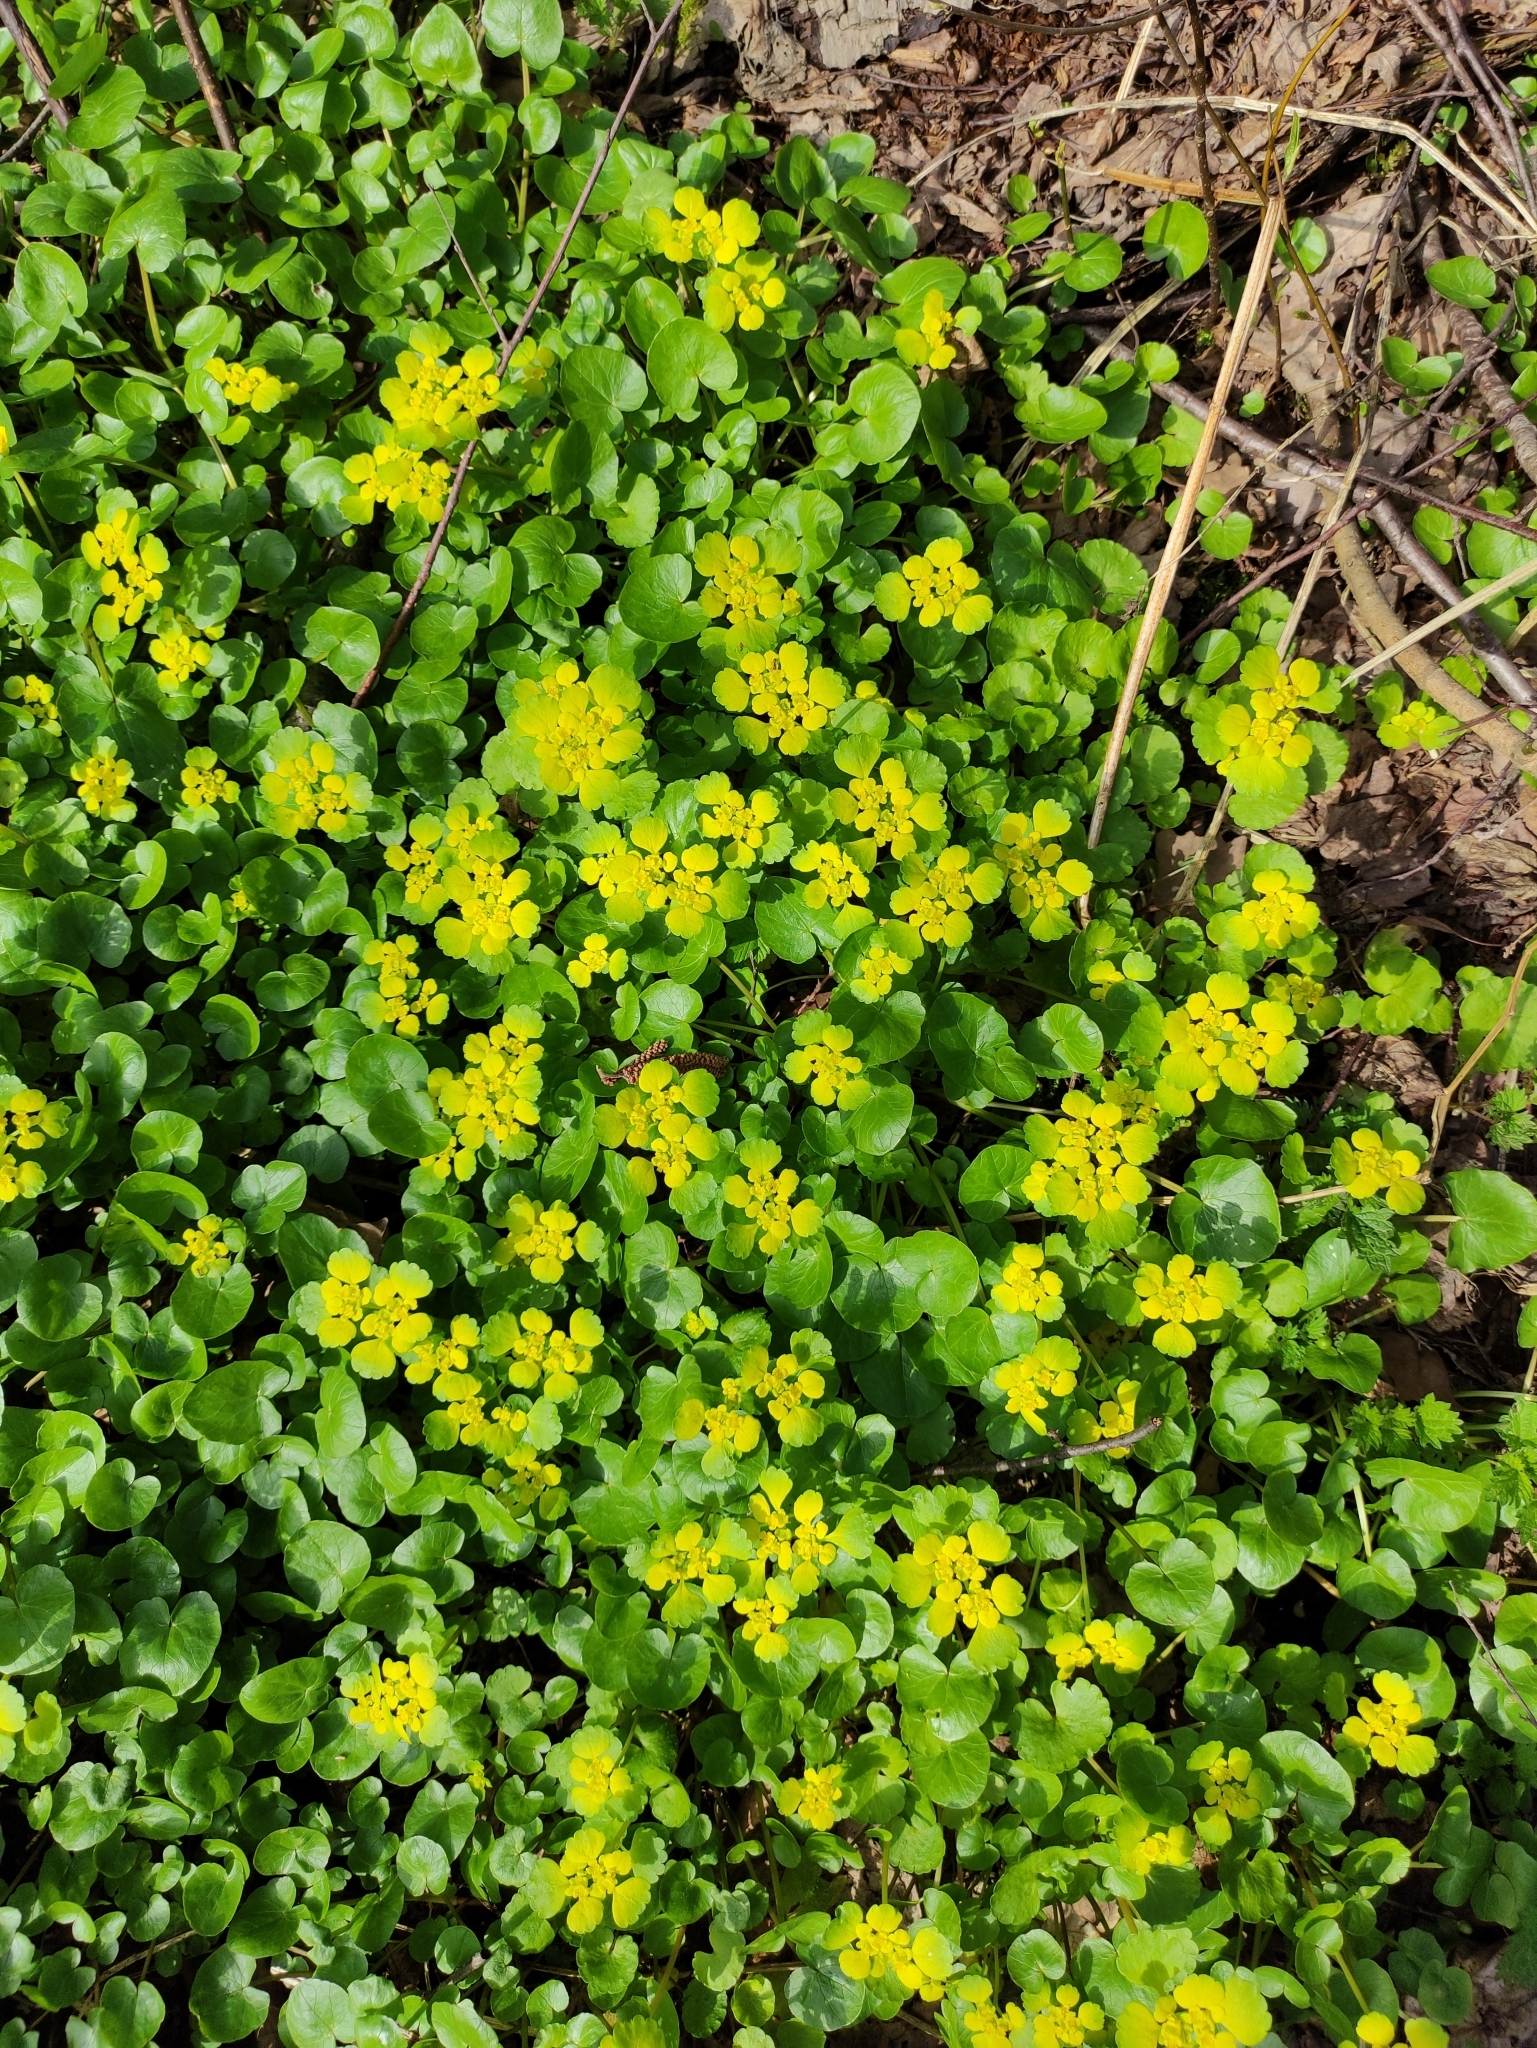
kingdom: Plantae
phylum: Tracheophyta
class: Magnoliopsida
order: Saxifragales
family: Saxifragaceae
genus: Chrysosplenium
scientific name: Chrysosplenium alternifolium
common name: Alternate-leaved golden-saxifrage
